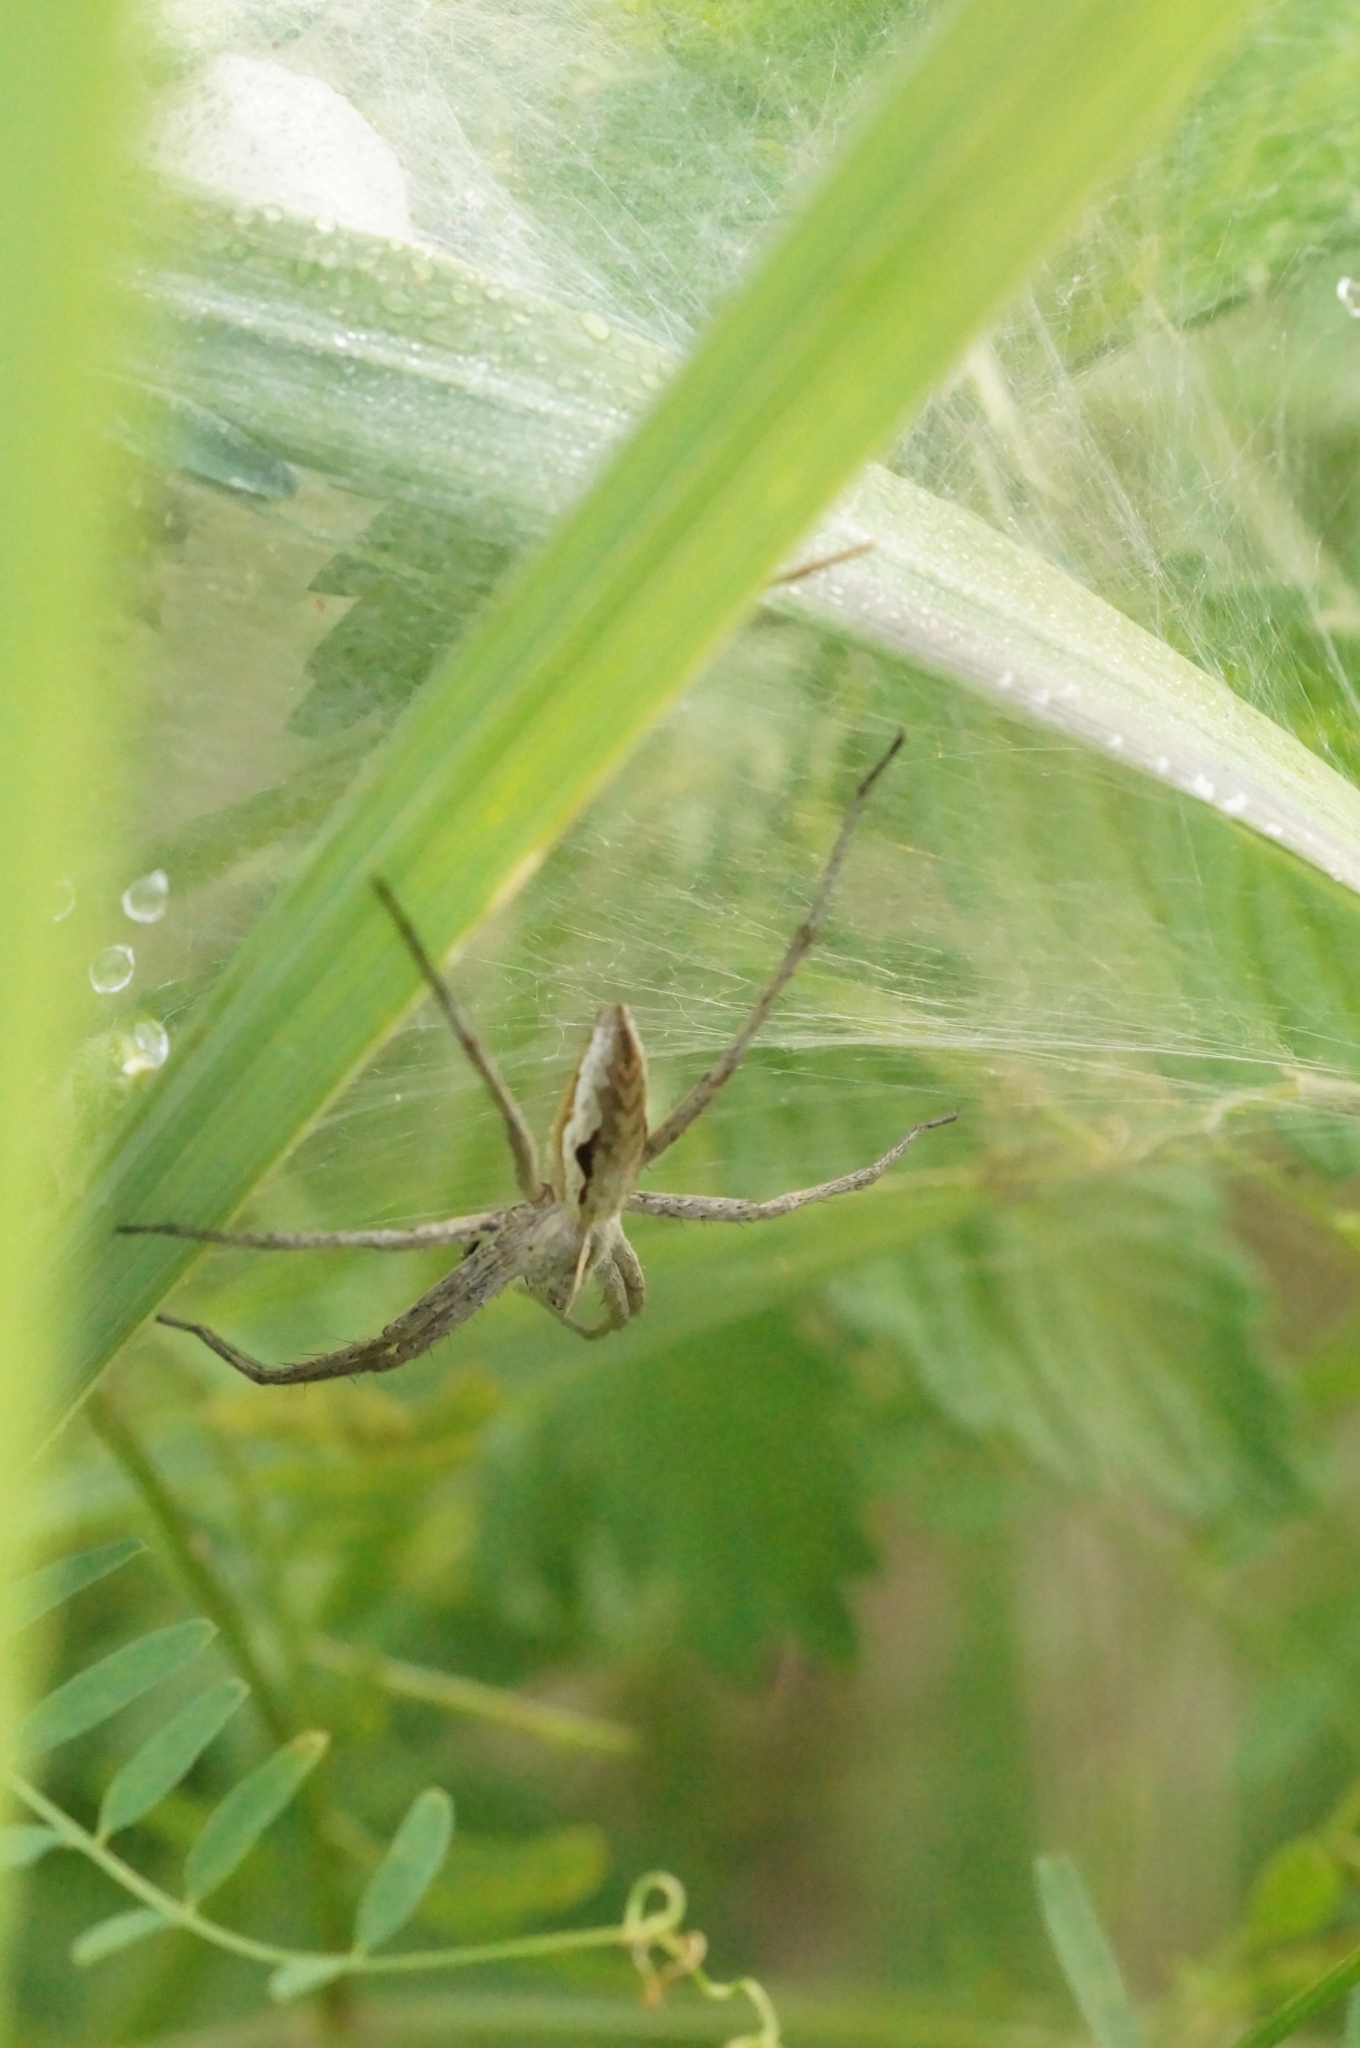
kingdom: Animalia
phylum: Arthropoda
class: Arachnida
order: Araneae
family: Pisauridae
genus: Pisaura
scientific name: Pisaura mirabilis
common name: Tent spider
